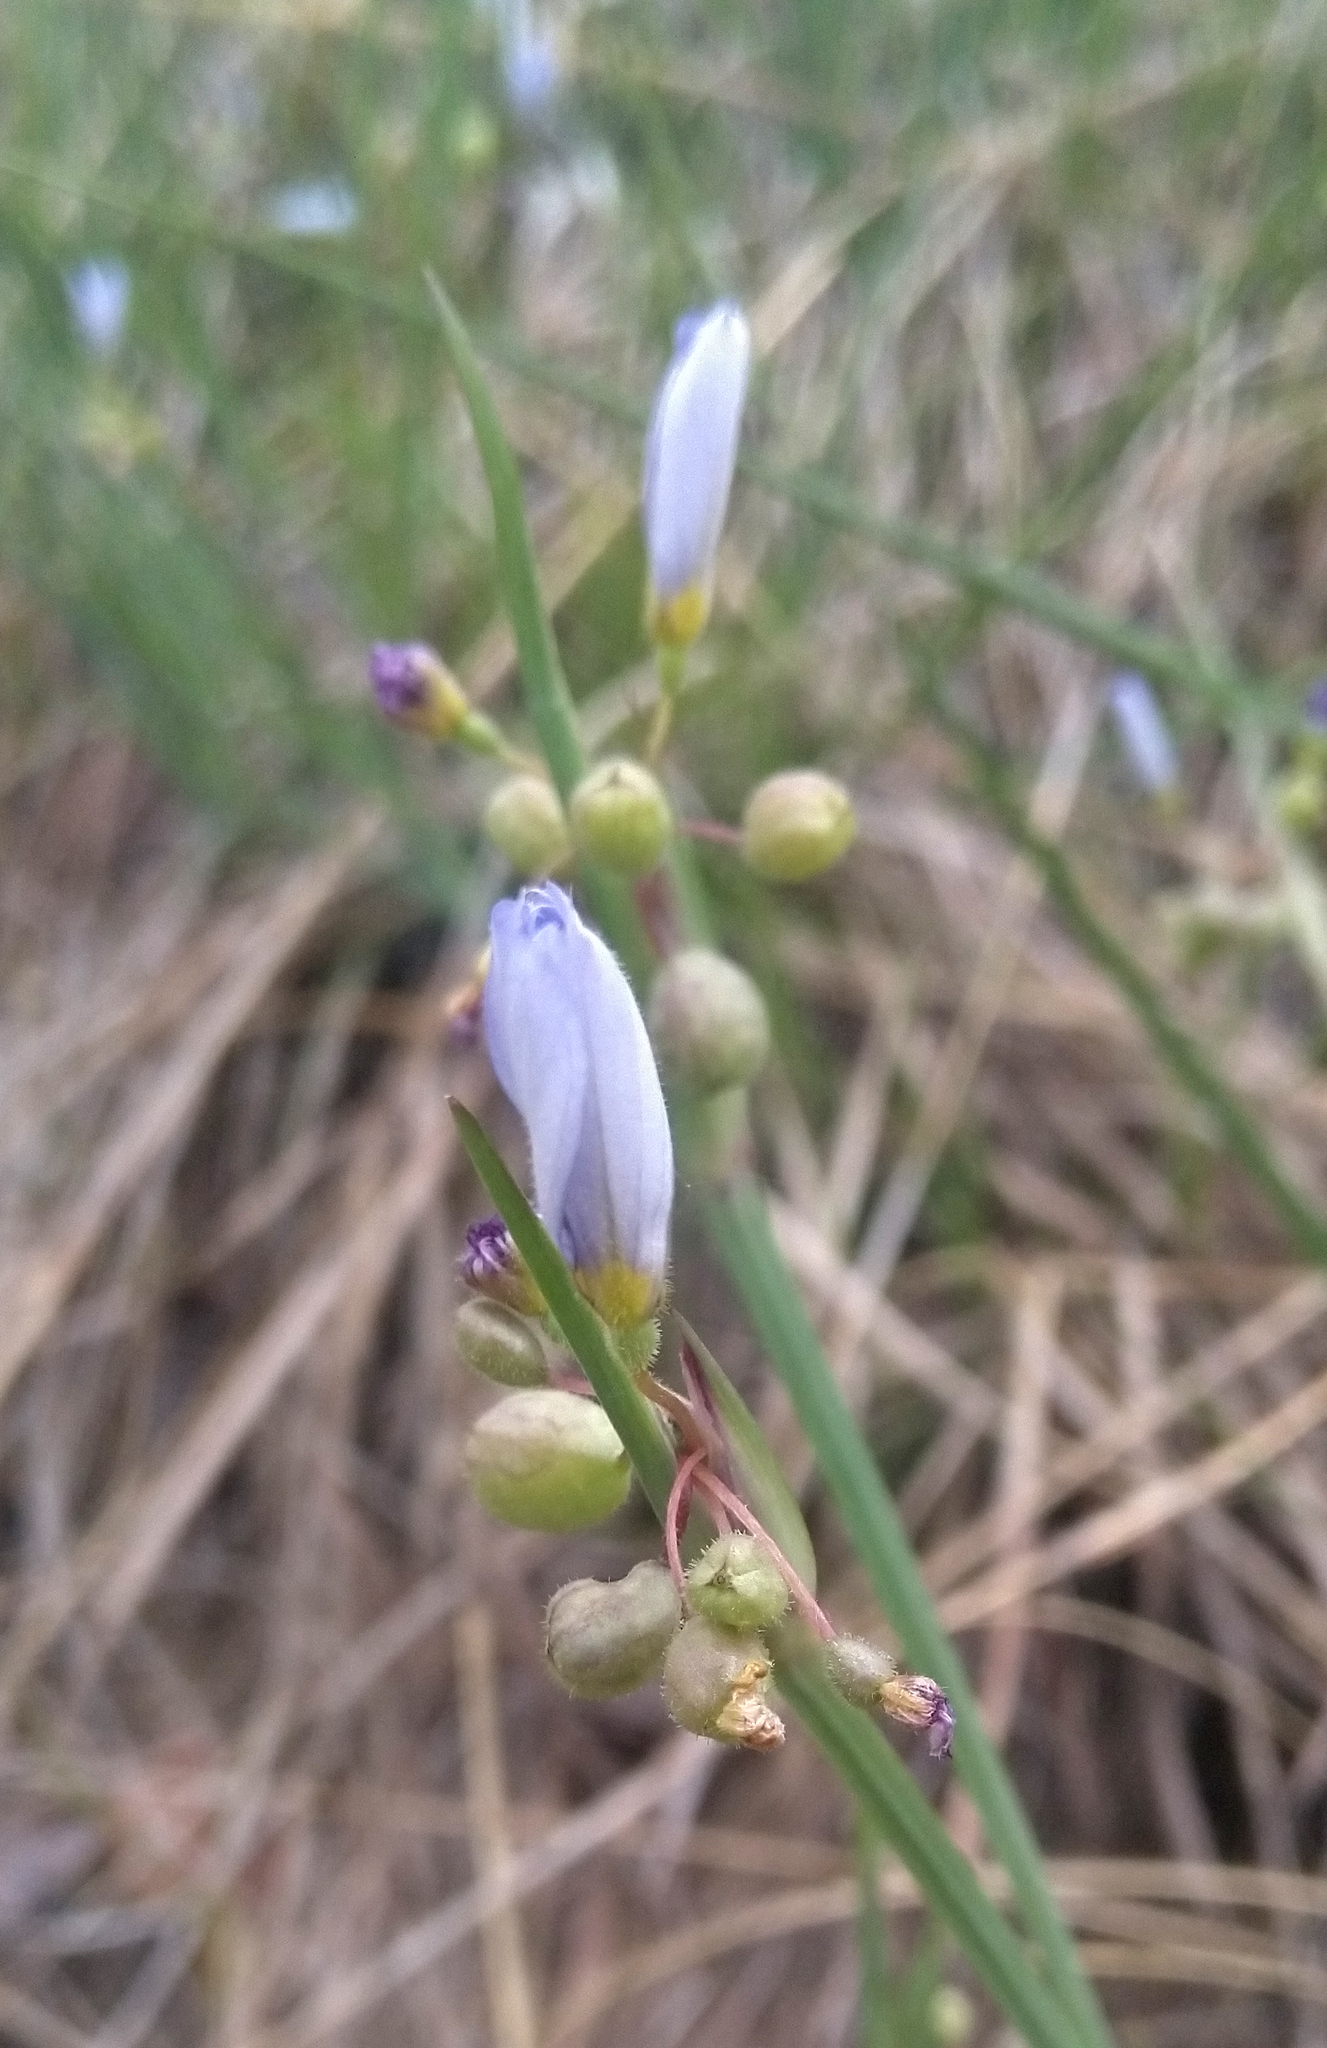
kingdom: Plantae
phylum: Tracheophyta
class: Liliopsida
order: Asparagales
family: Iridaceae
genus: Sisyrinchium
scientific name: Sisyrinchium campestre
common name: Prairie blue-eyed-grass
